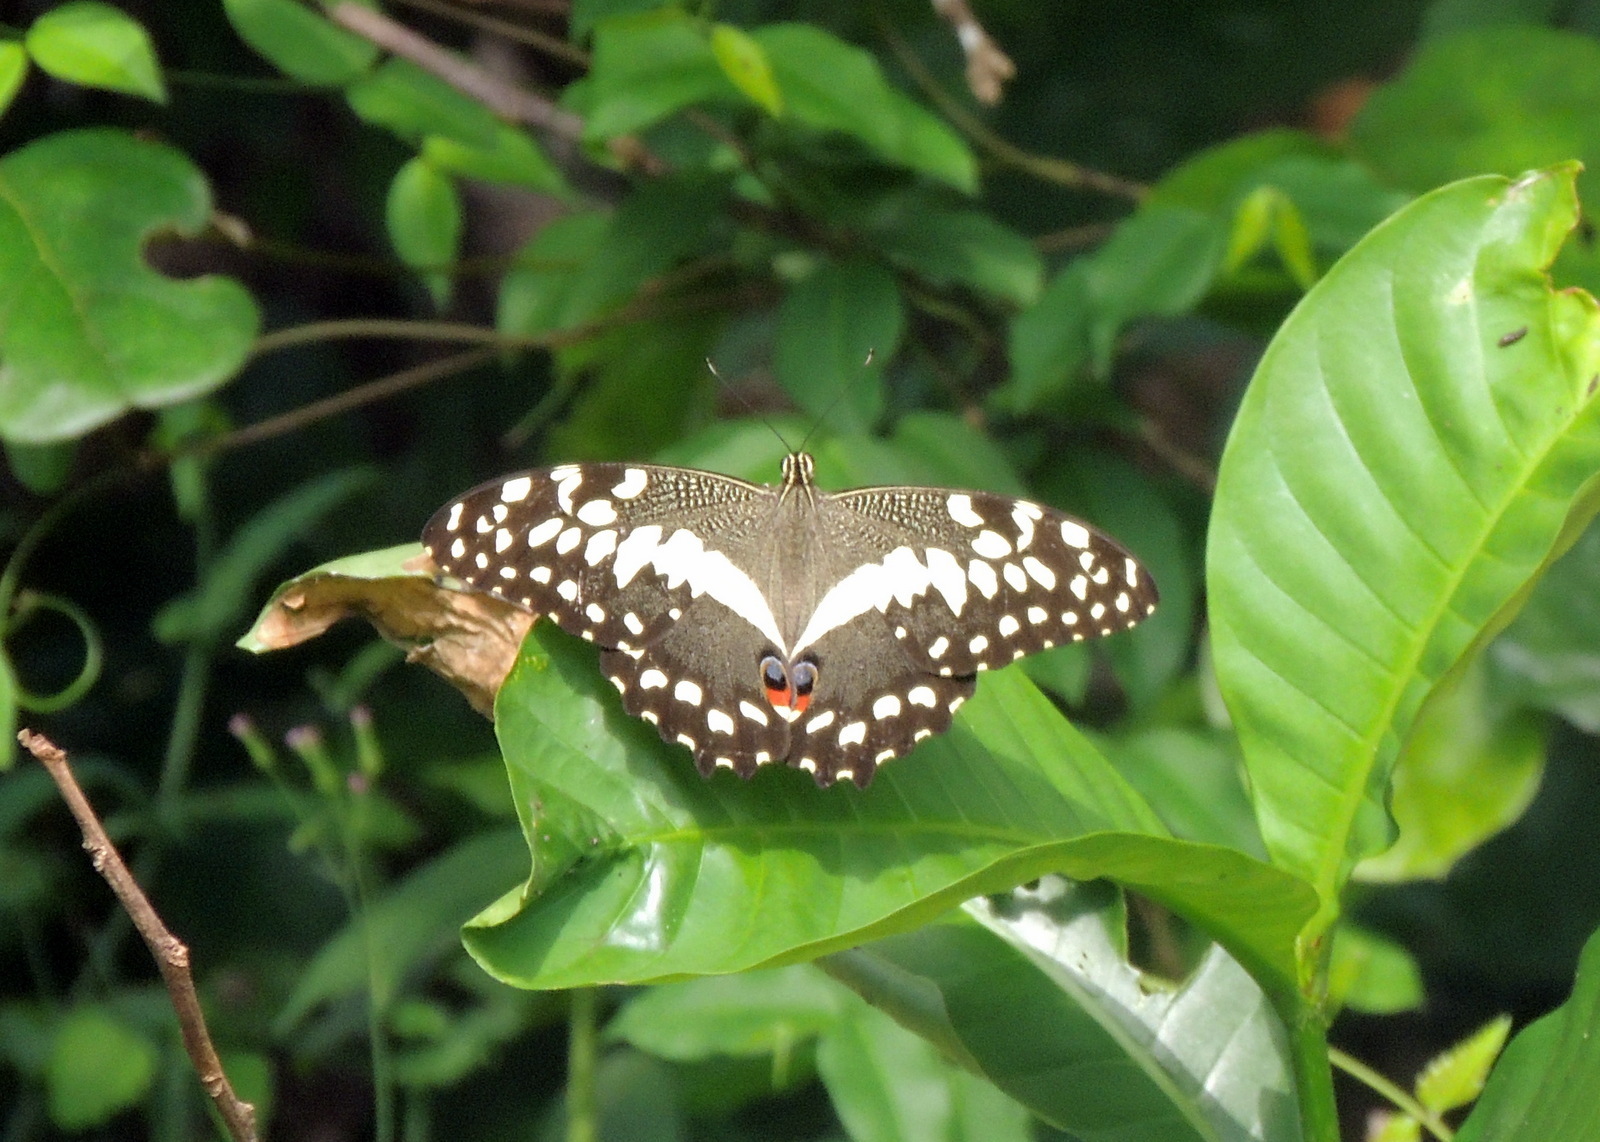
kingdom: Animalia
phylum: Arthropoda
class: Insecta
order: Lepidoptera
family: Papilionidae
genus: Papilio
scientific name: Papilio demodocus
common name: Christmas butterfly
